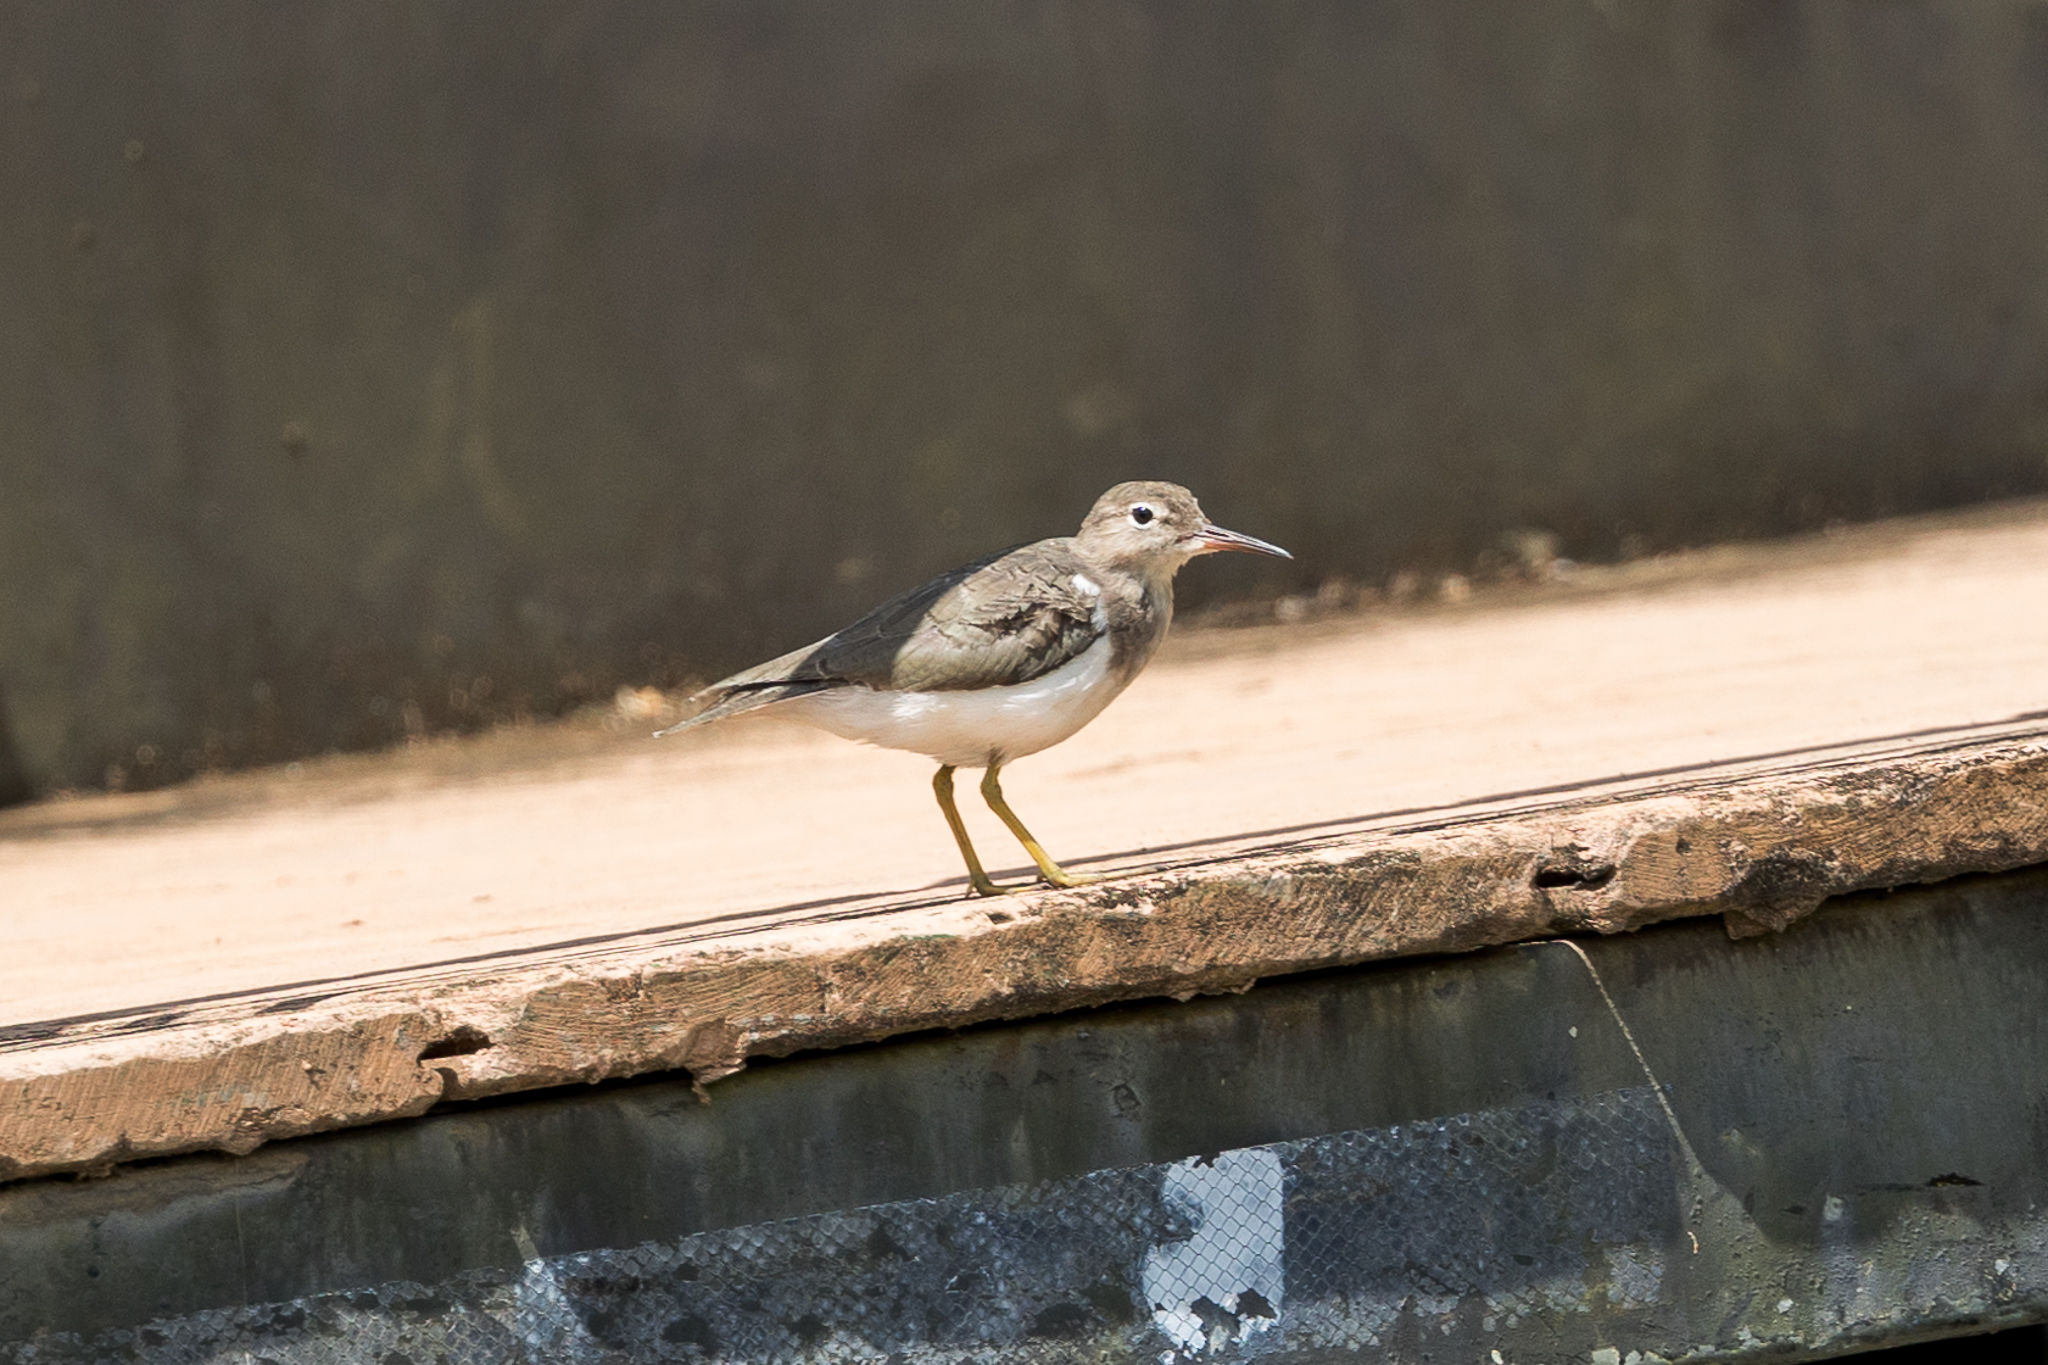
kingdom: Animalia
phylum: Chordata
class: Aves
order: Charadriiformes
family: Scolopacidae
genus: Actitis
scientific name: Actitis macularius
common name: Spotted sandpiper
